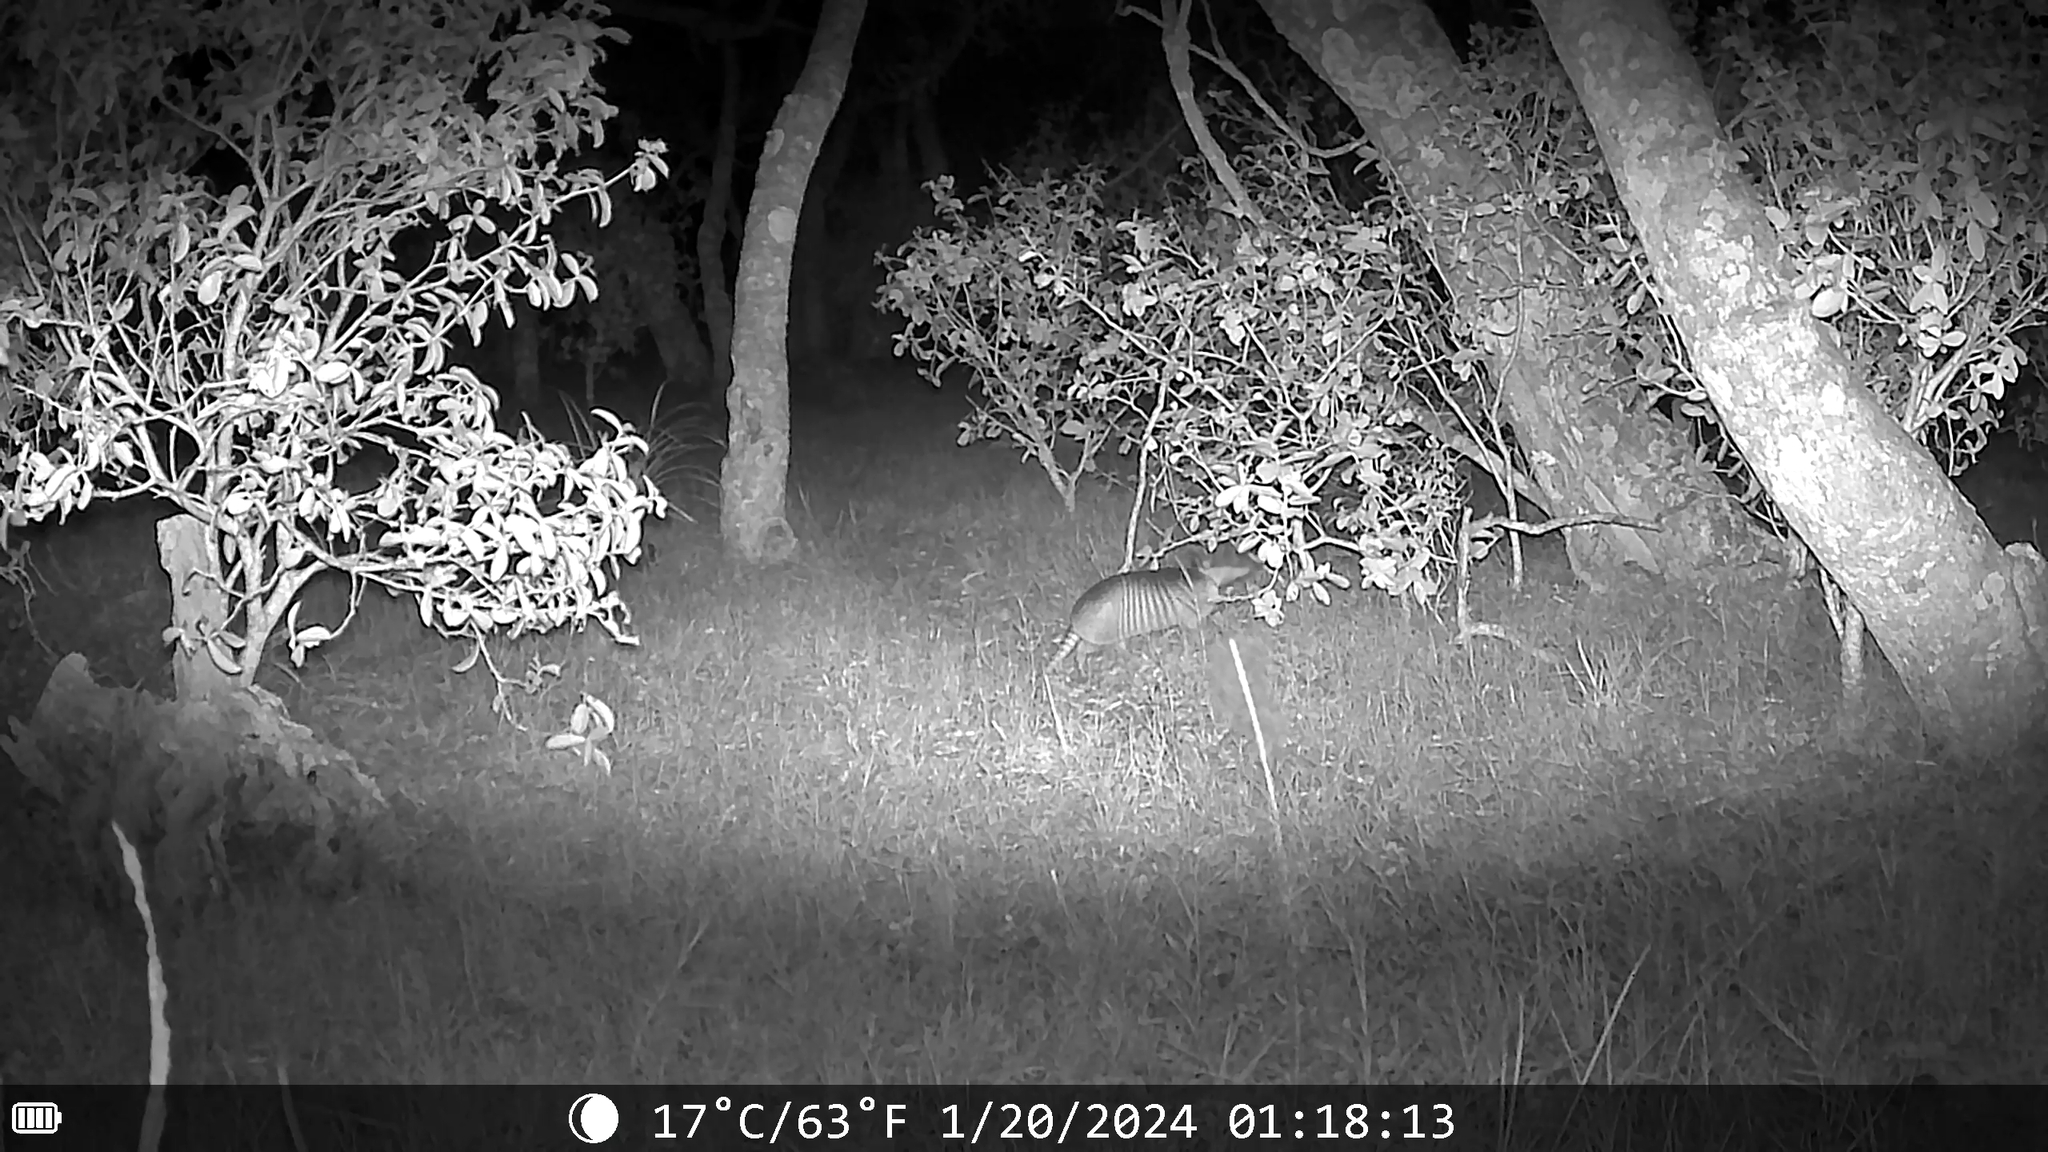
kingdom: Animalia
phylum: Chordata
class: Mammalia
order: Cingulata
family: Dasypodidae
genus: Dasypus
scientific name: Dasypus septemcinctus
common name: Seven-banded armadillo
